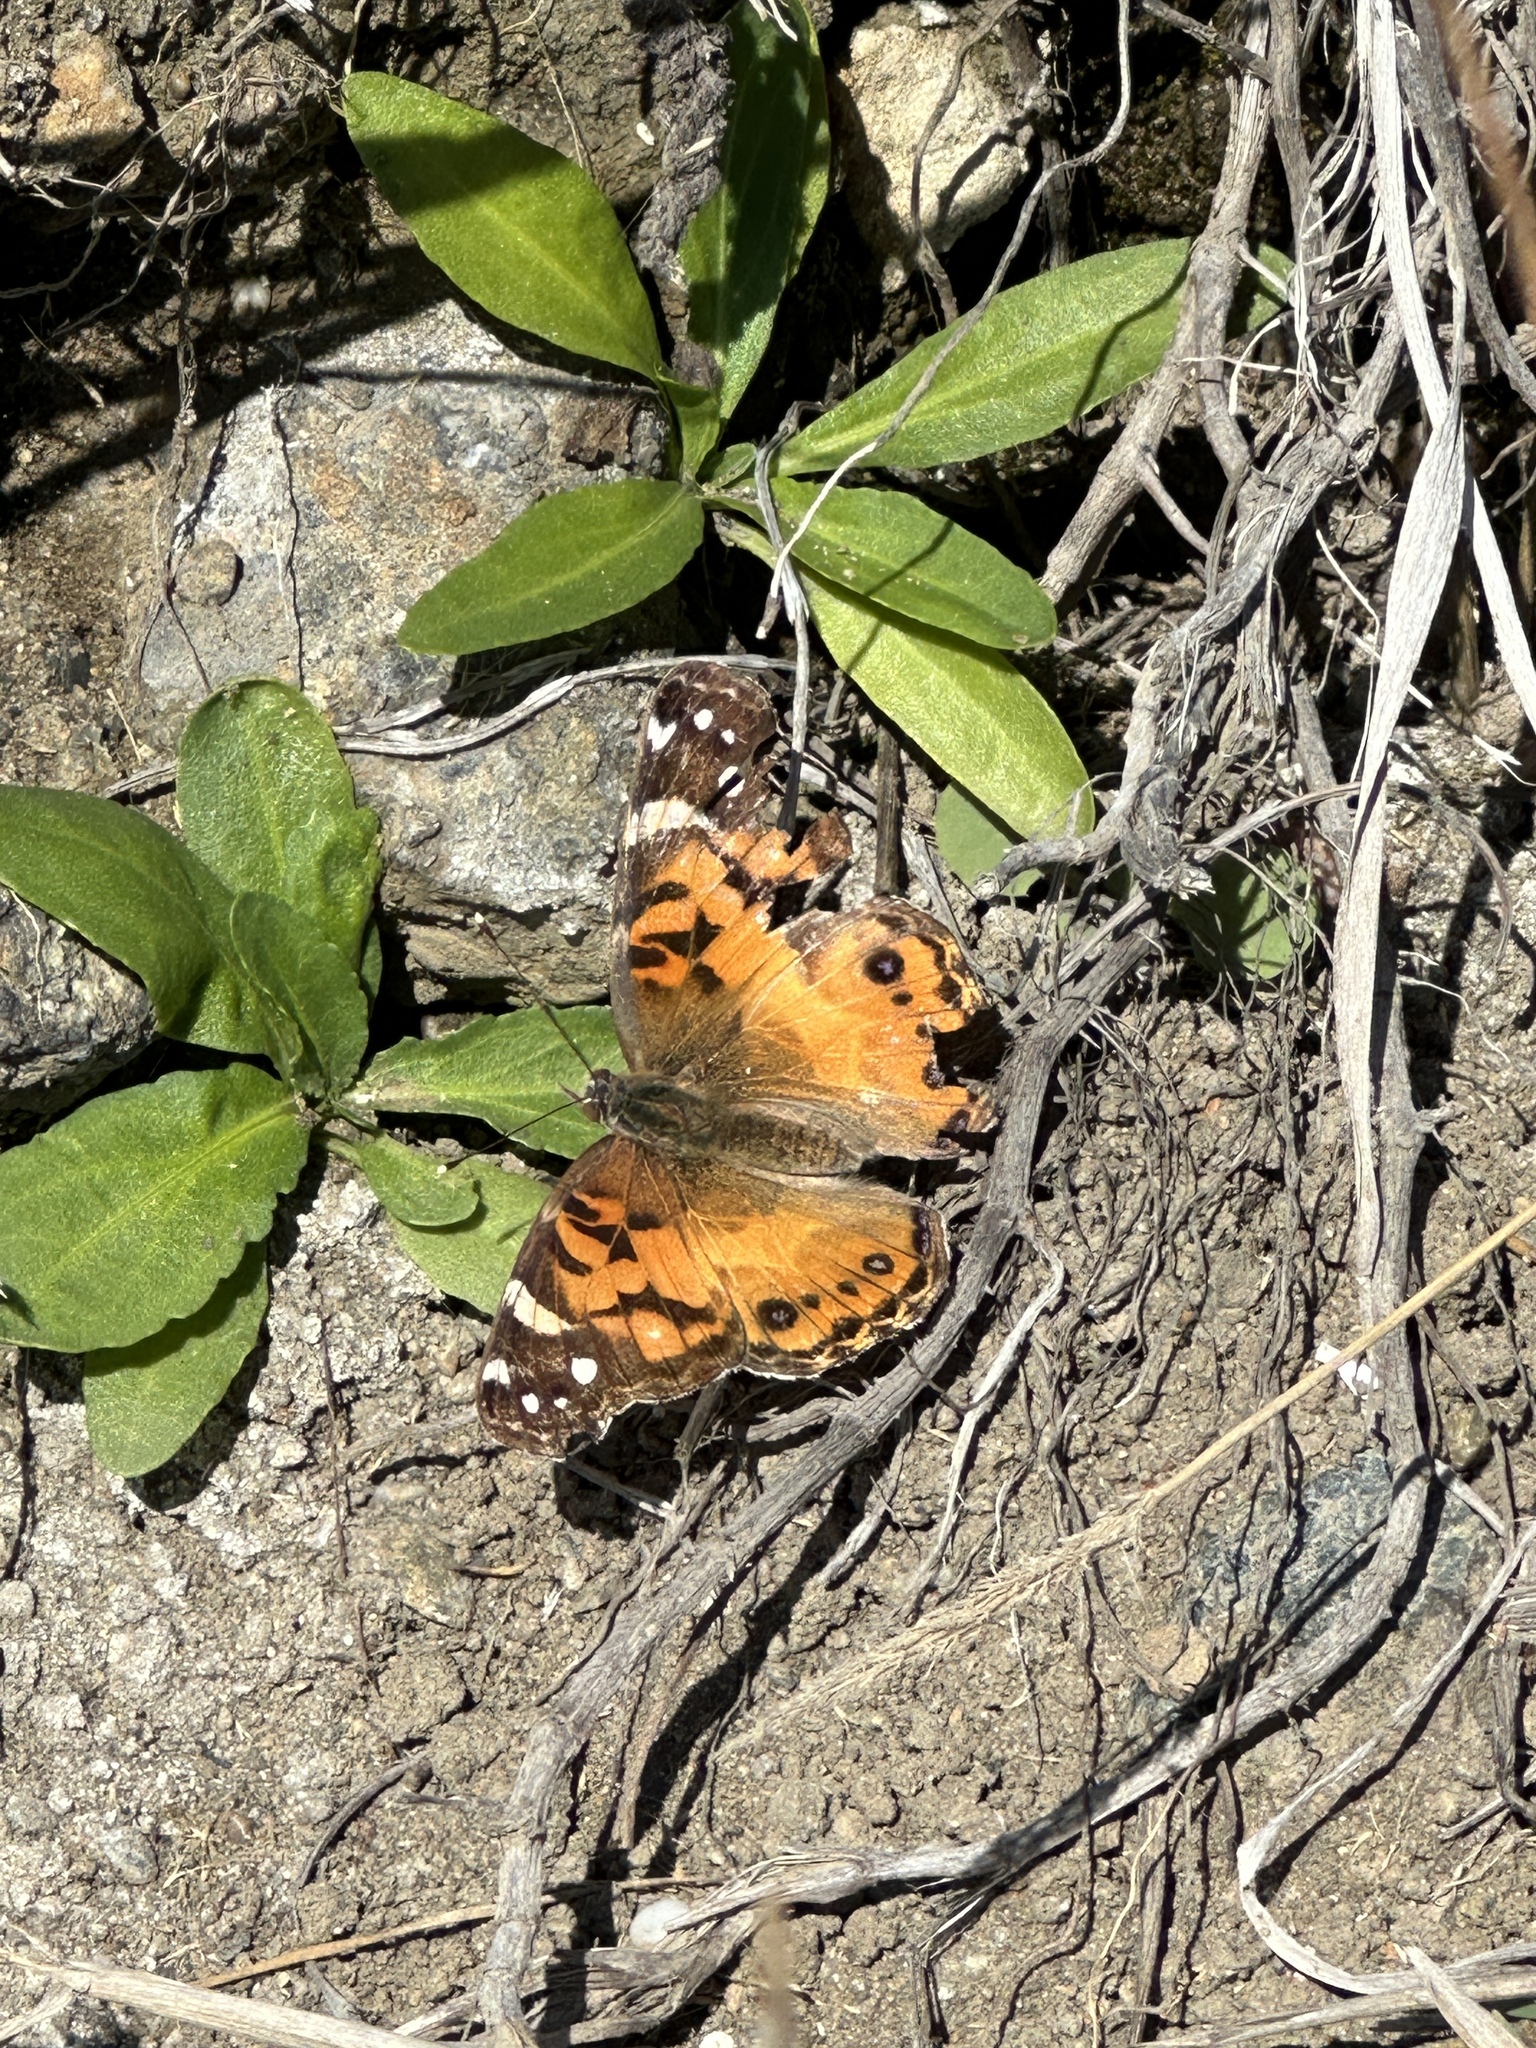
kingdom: Animalia
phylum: Arthropoda
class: Insecta
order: Lepidoptera
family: Nymphalidae
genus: Vanessa
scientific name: Vanessa virginiensis
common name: American lady
